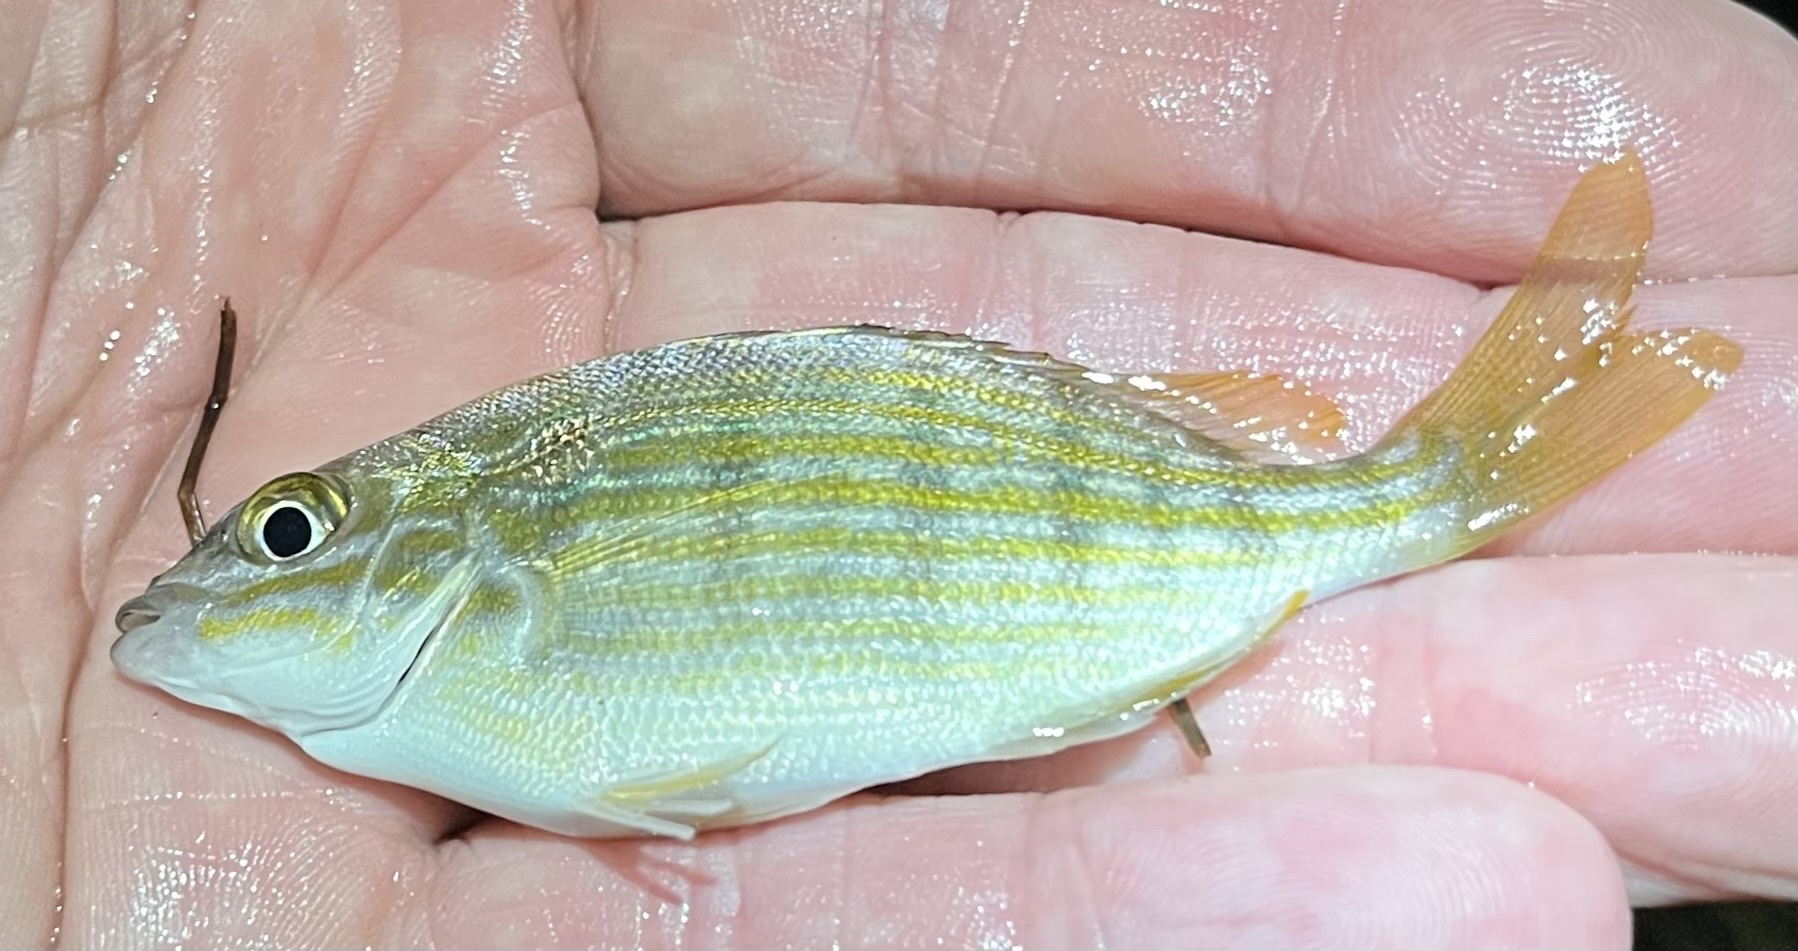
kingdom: Animalia
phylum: Chordata
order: Perciformes
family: Sparidae
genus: Lagodon
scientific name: Lagodon rhomboides
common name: Pinfish
